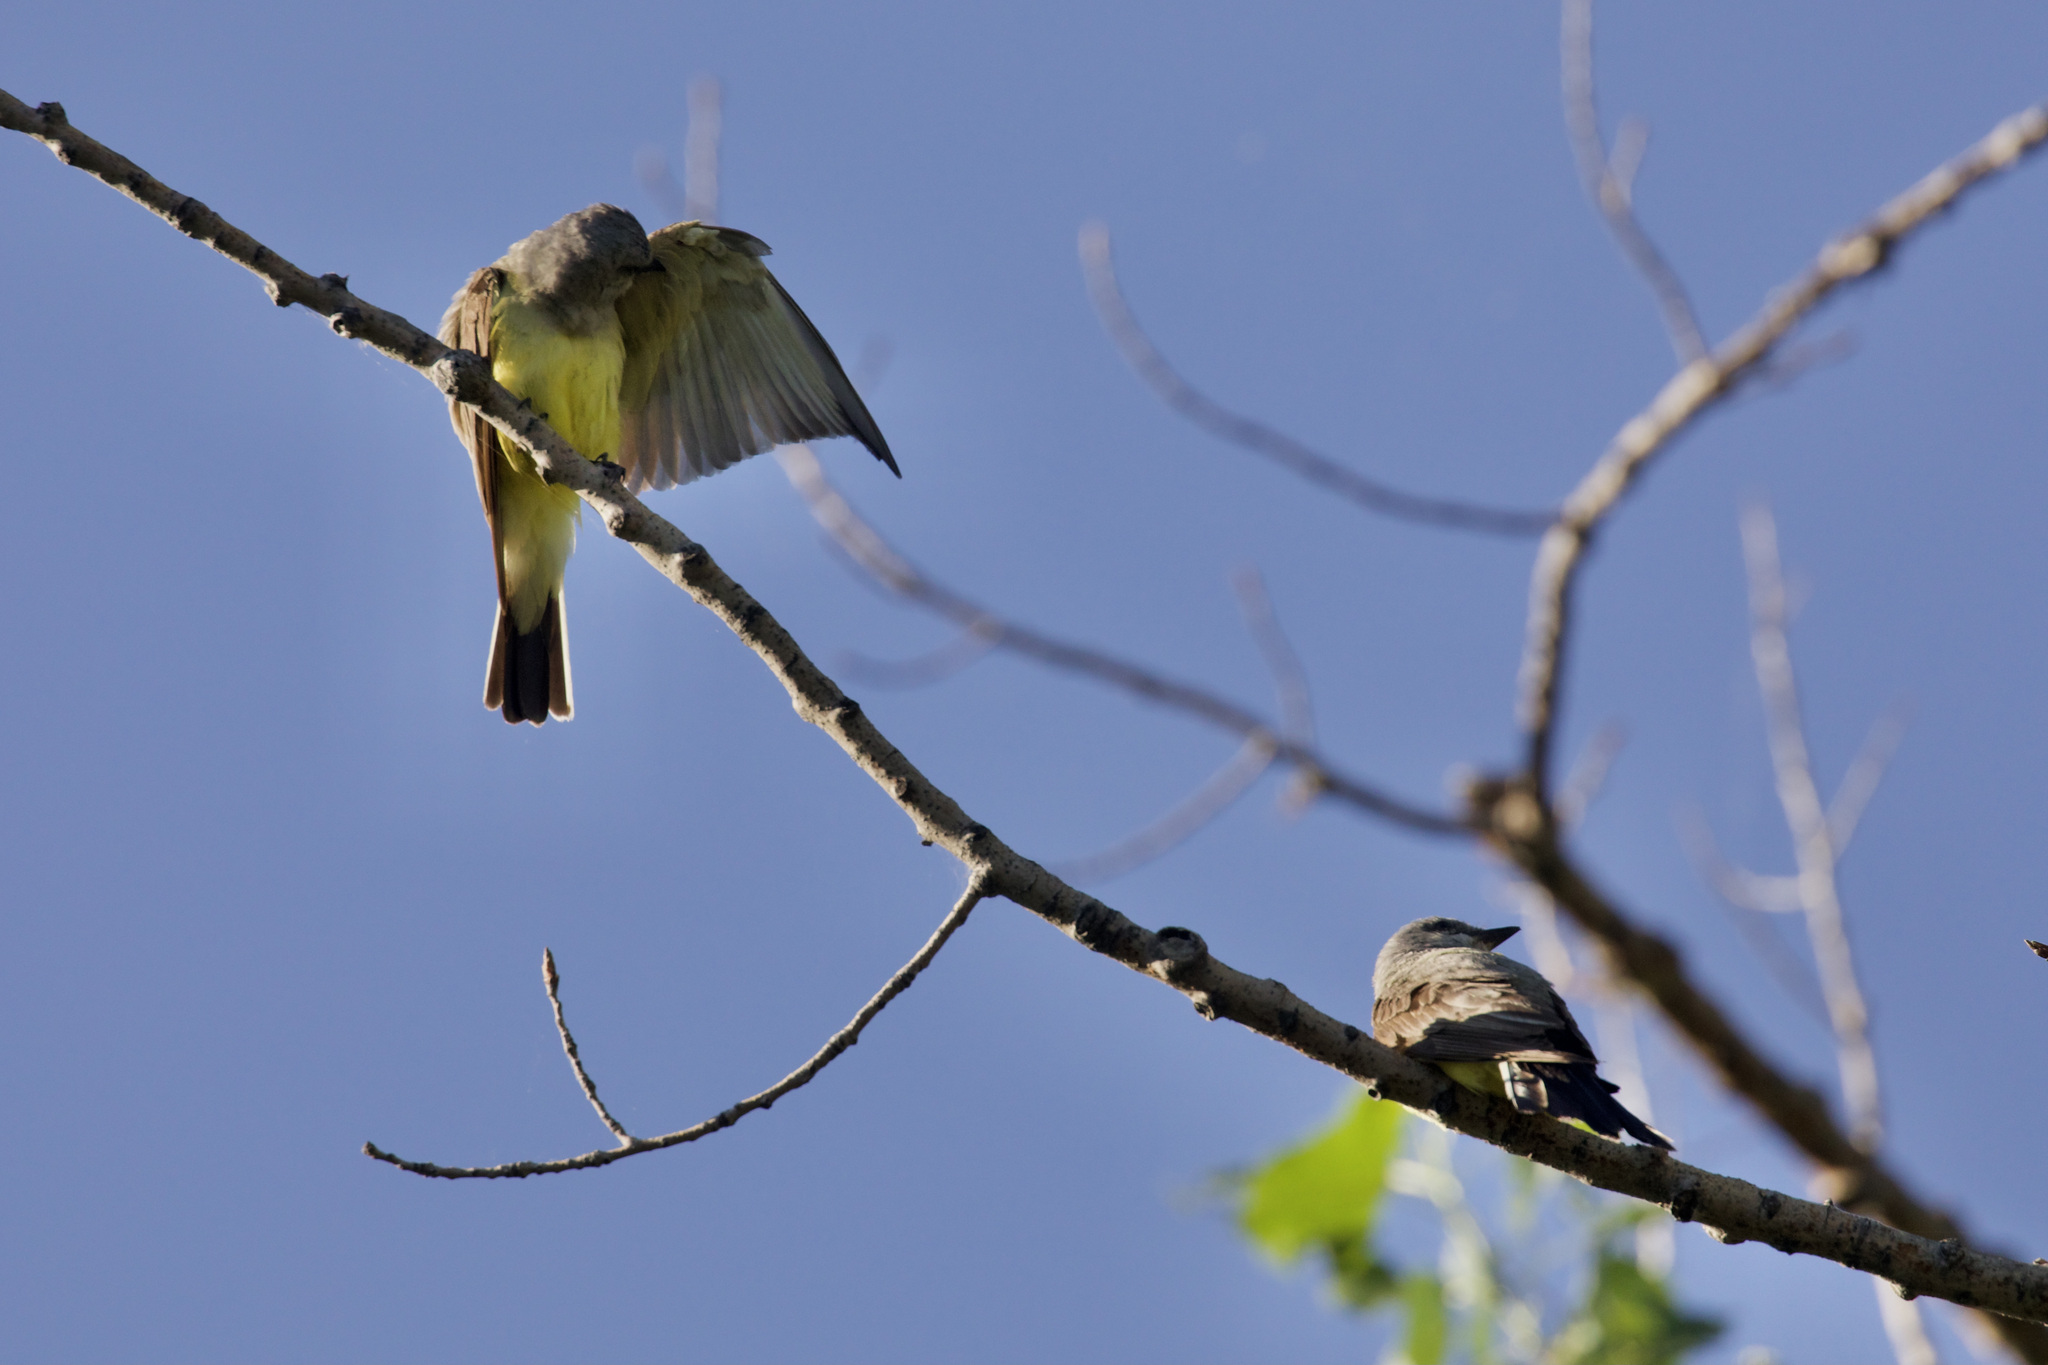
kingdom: Animalia
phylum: Chordata
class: Aves
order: Passeriformes
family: Tyrannidae
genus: Tyrannus
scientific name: Tyrannus verticalis
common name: Western kingbird
